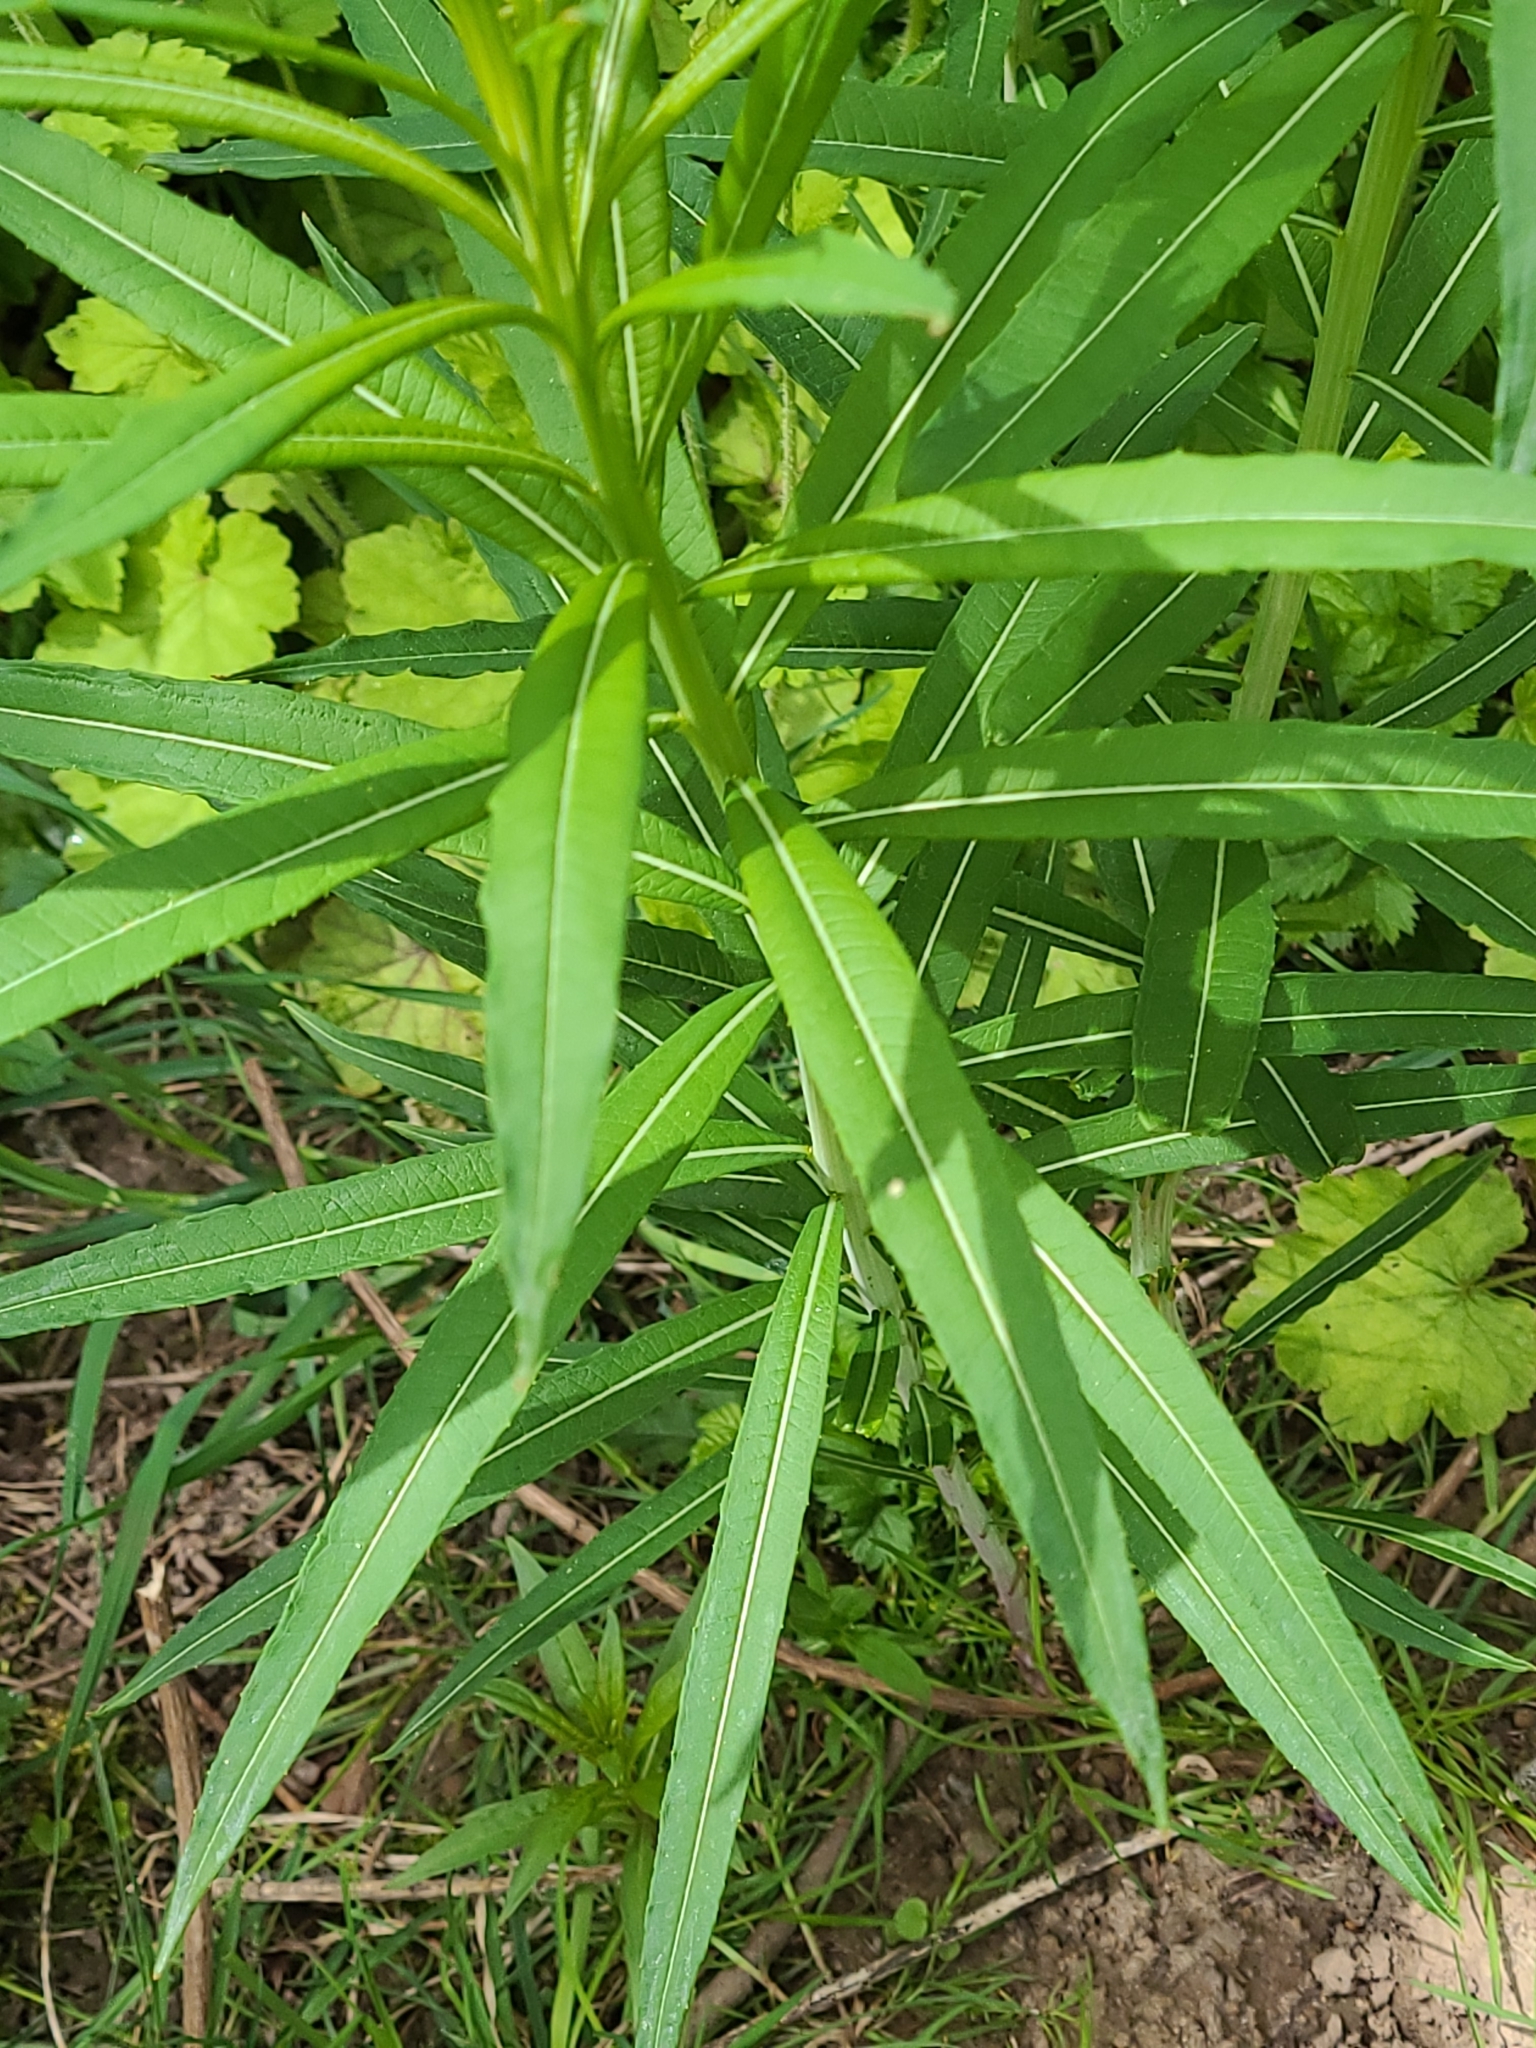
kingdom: Plantae
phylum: Tracheophyta
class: Magnoliopsida
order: Myrtales
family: Onagraceae
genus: Chamaenerion
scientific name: Chamaenerion angustifolium
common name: Fireweed
